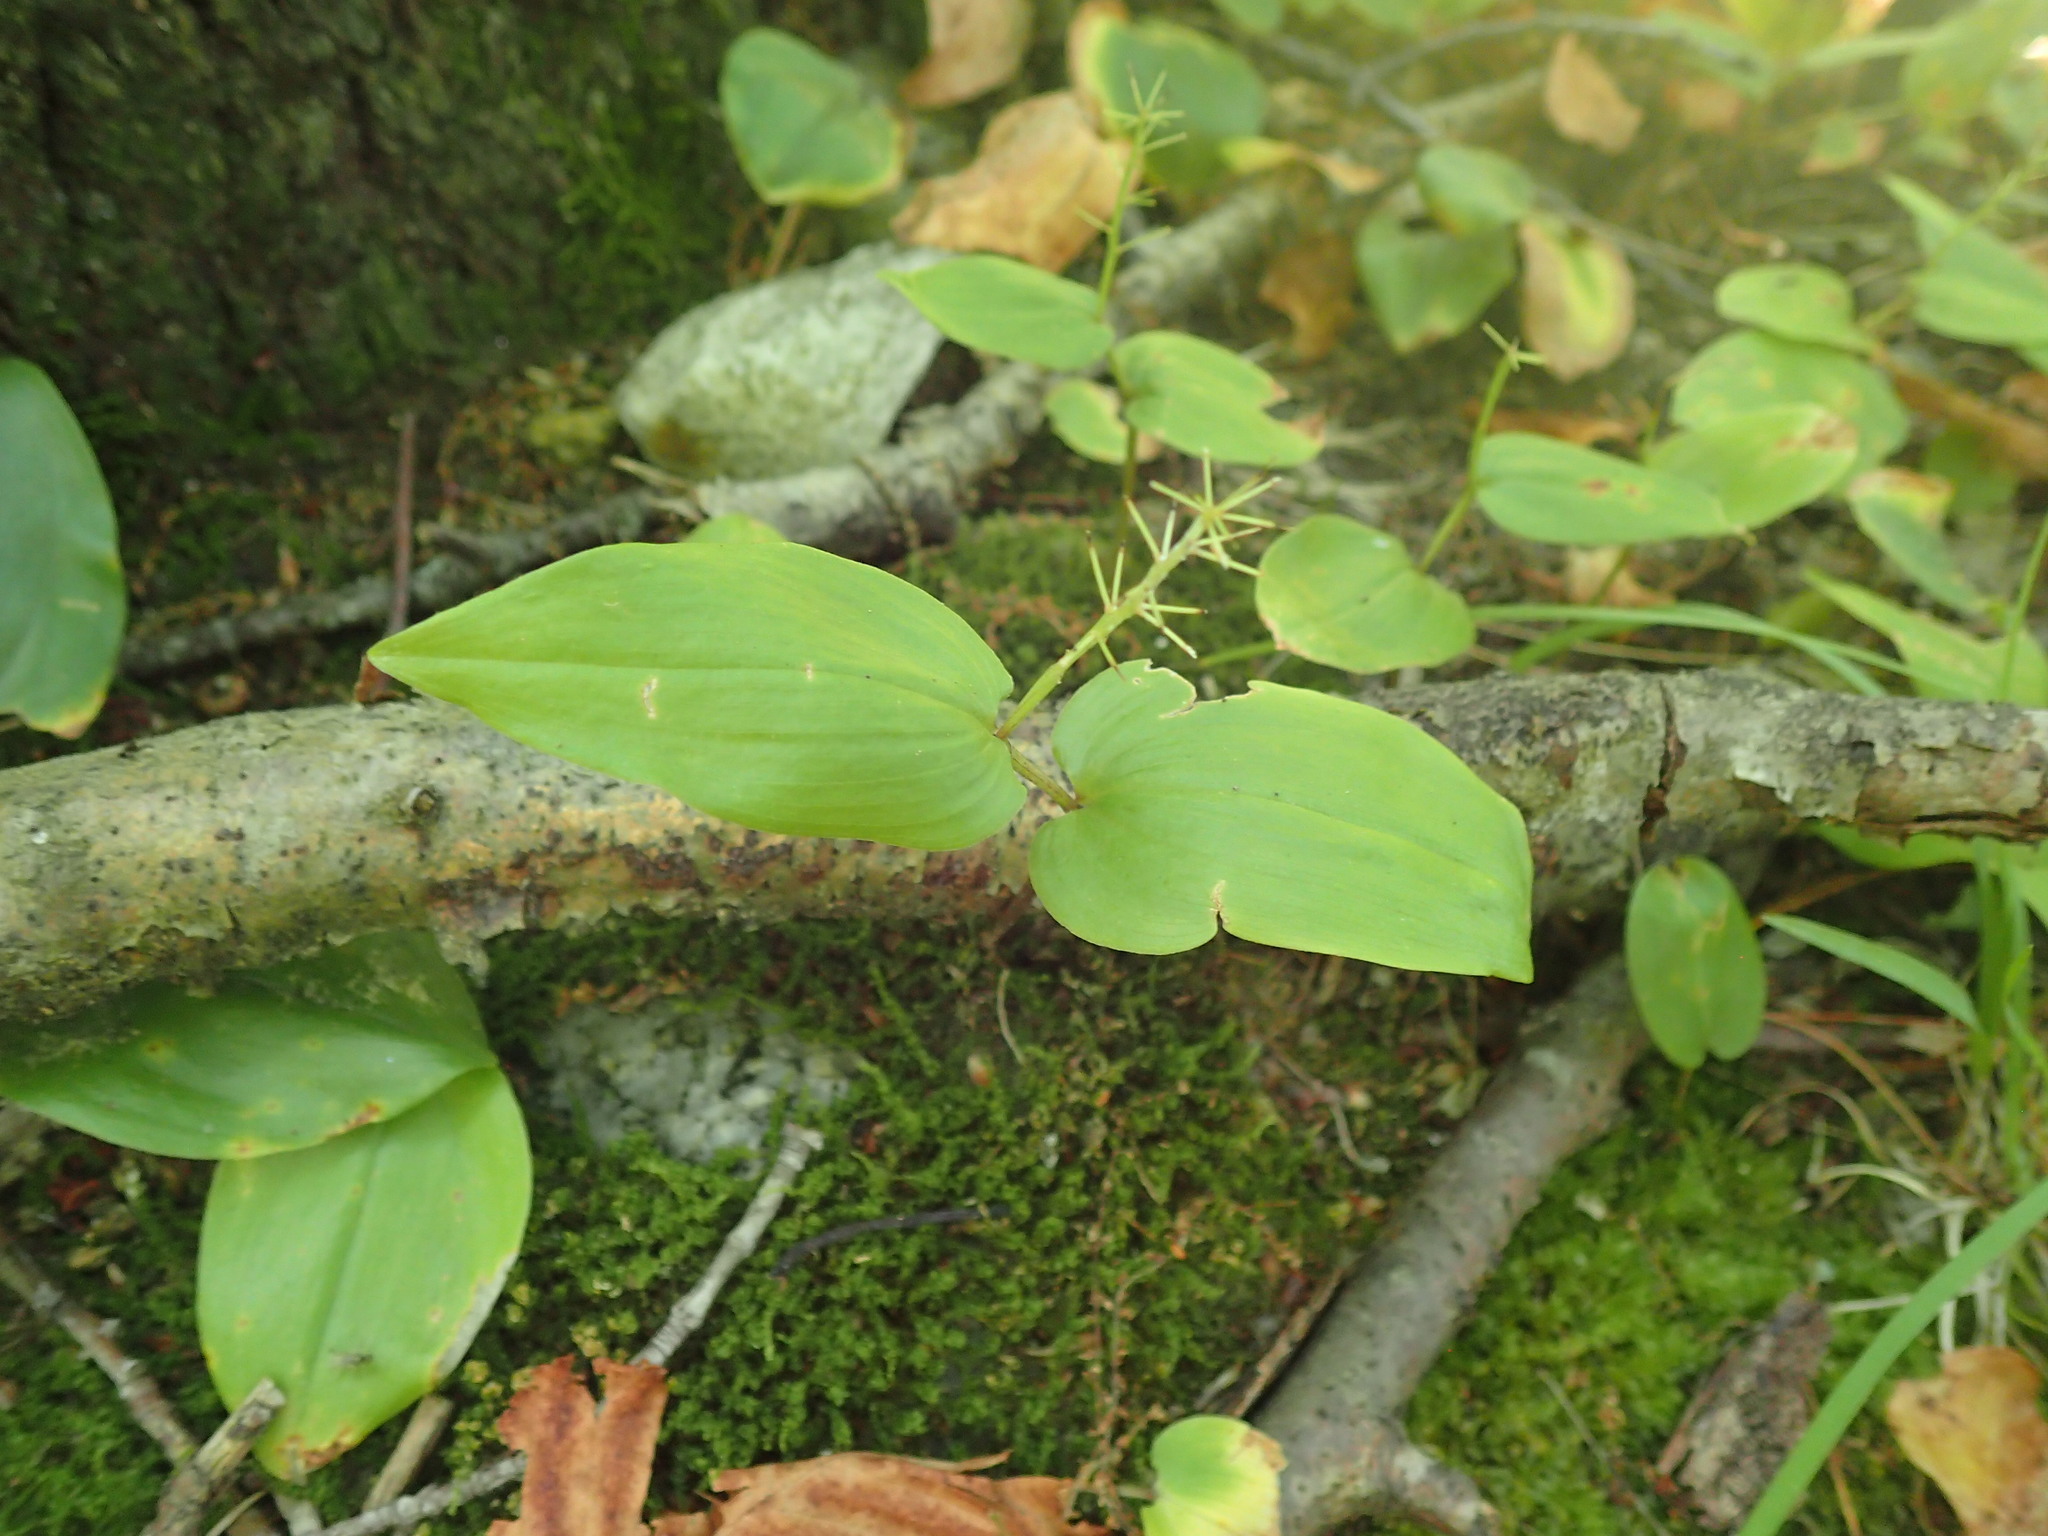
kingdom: Plantae
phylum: Tracheophyta
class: Liliopsida
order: Asparagales
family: Asparagaceae
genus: Maianthemum
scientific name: Maianthemum canadense
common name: False lily-of-the-valley
